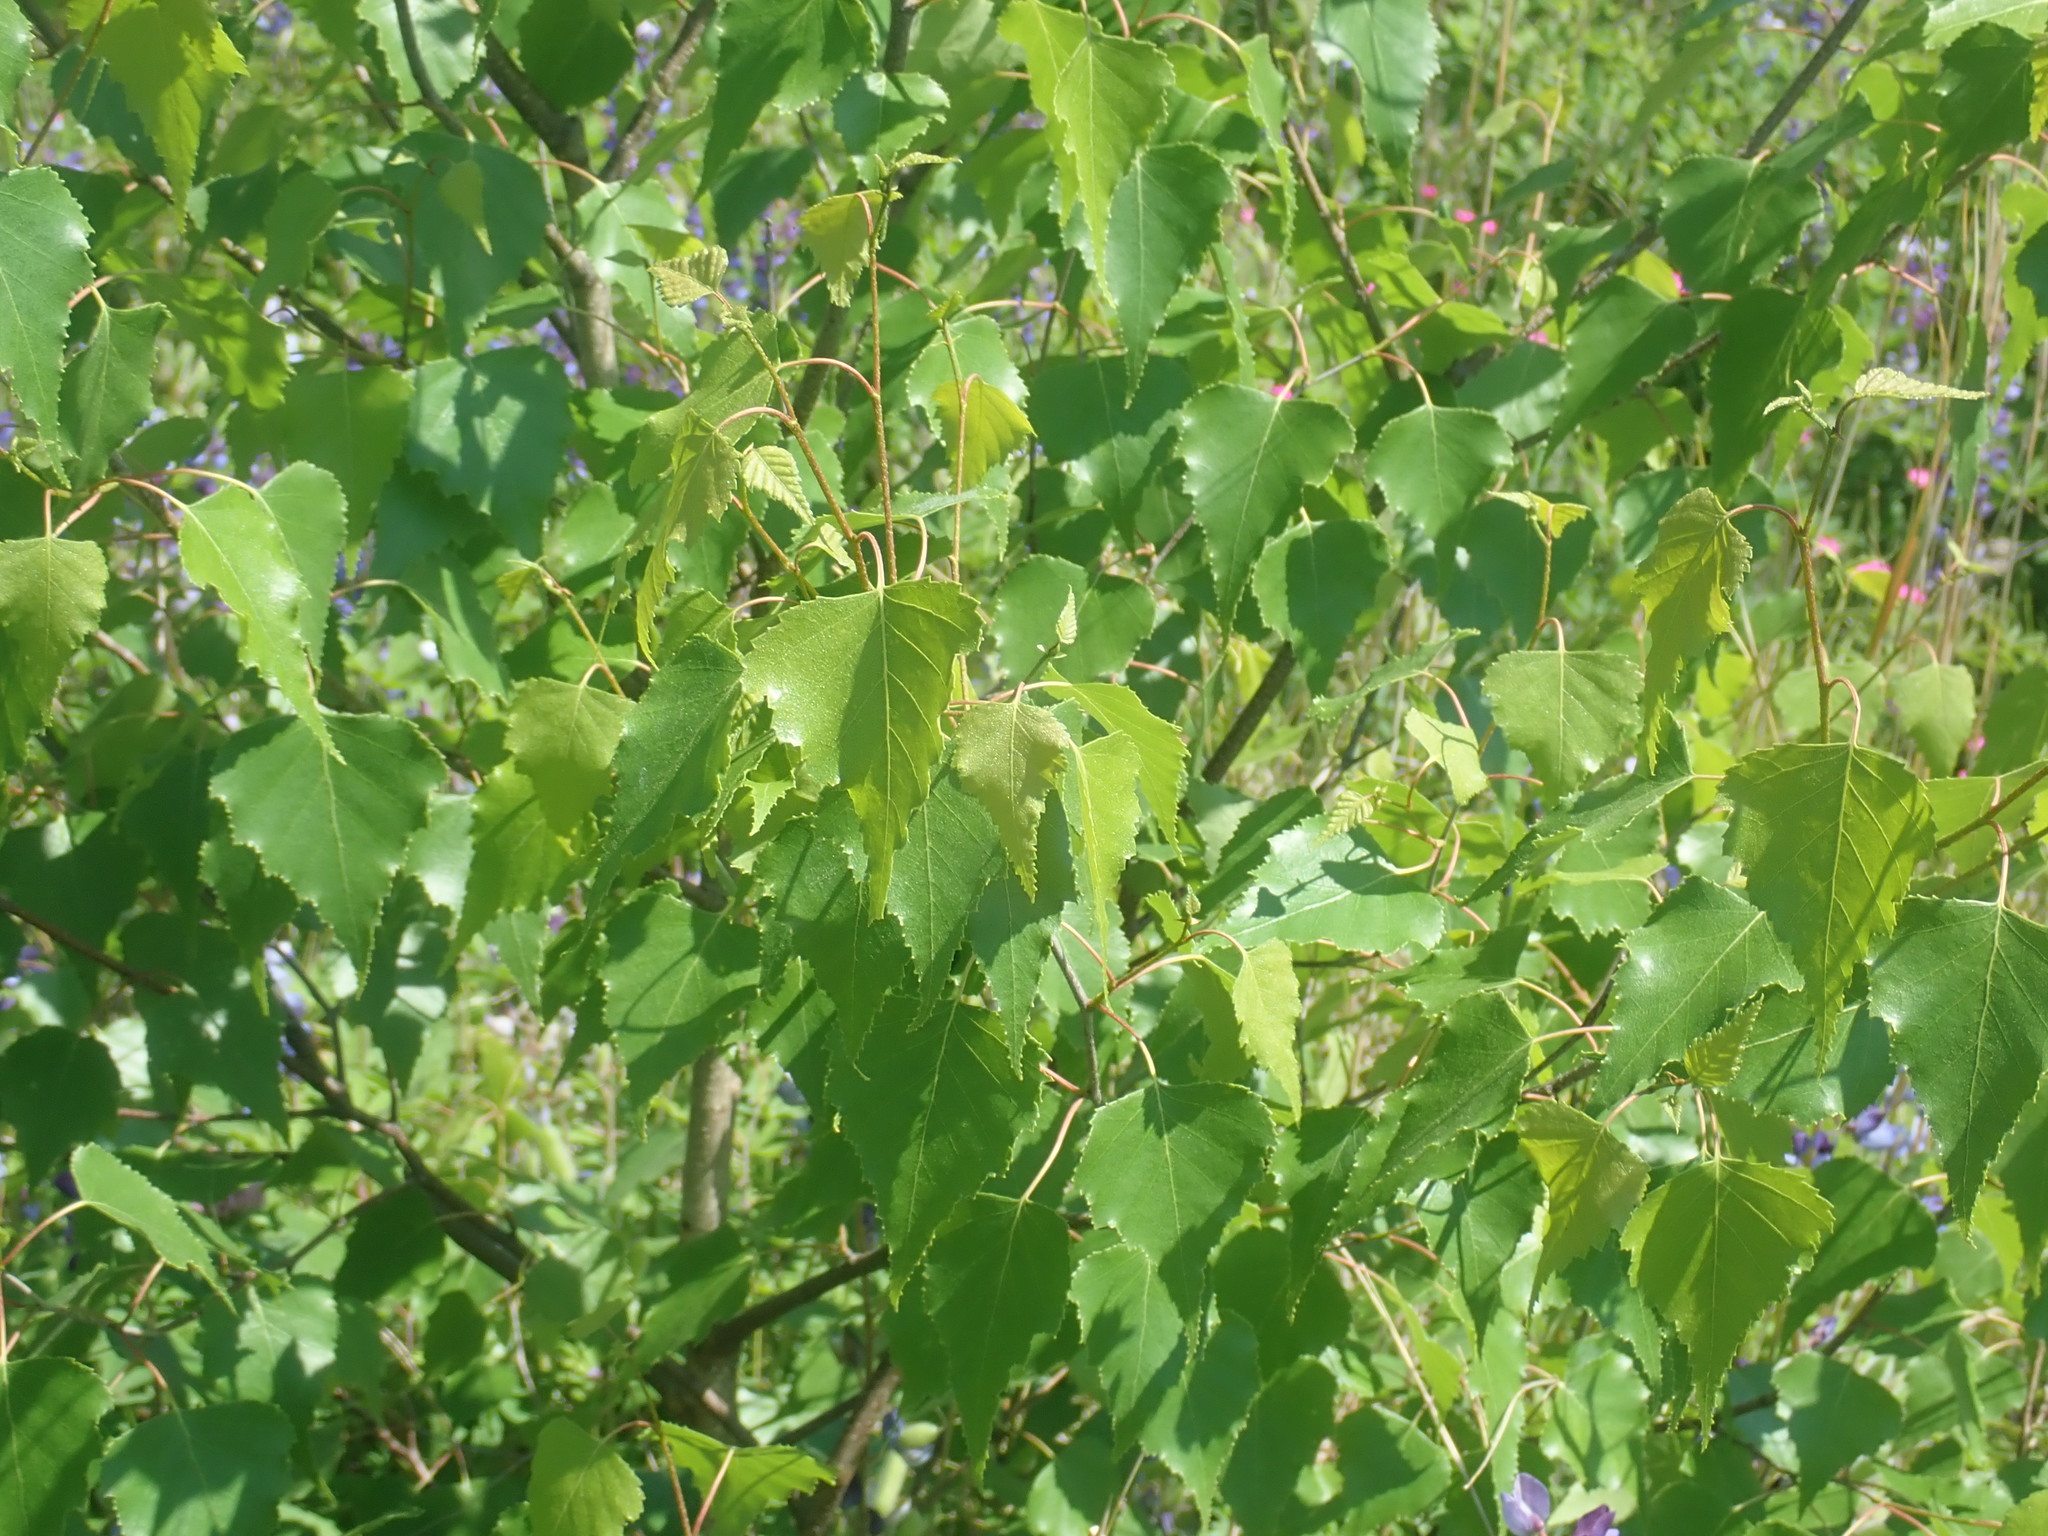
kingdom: Plantae
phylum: Tracheophyta
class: Magnoliopsida
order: Fagales
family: Betulaceae
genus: Betula
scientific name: Betula populifolia
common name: Fire birch
